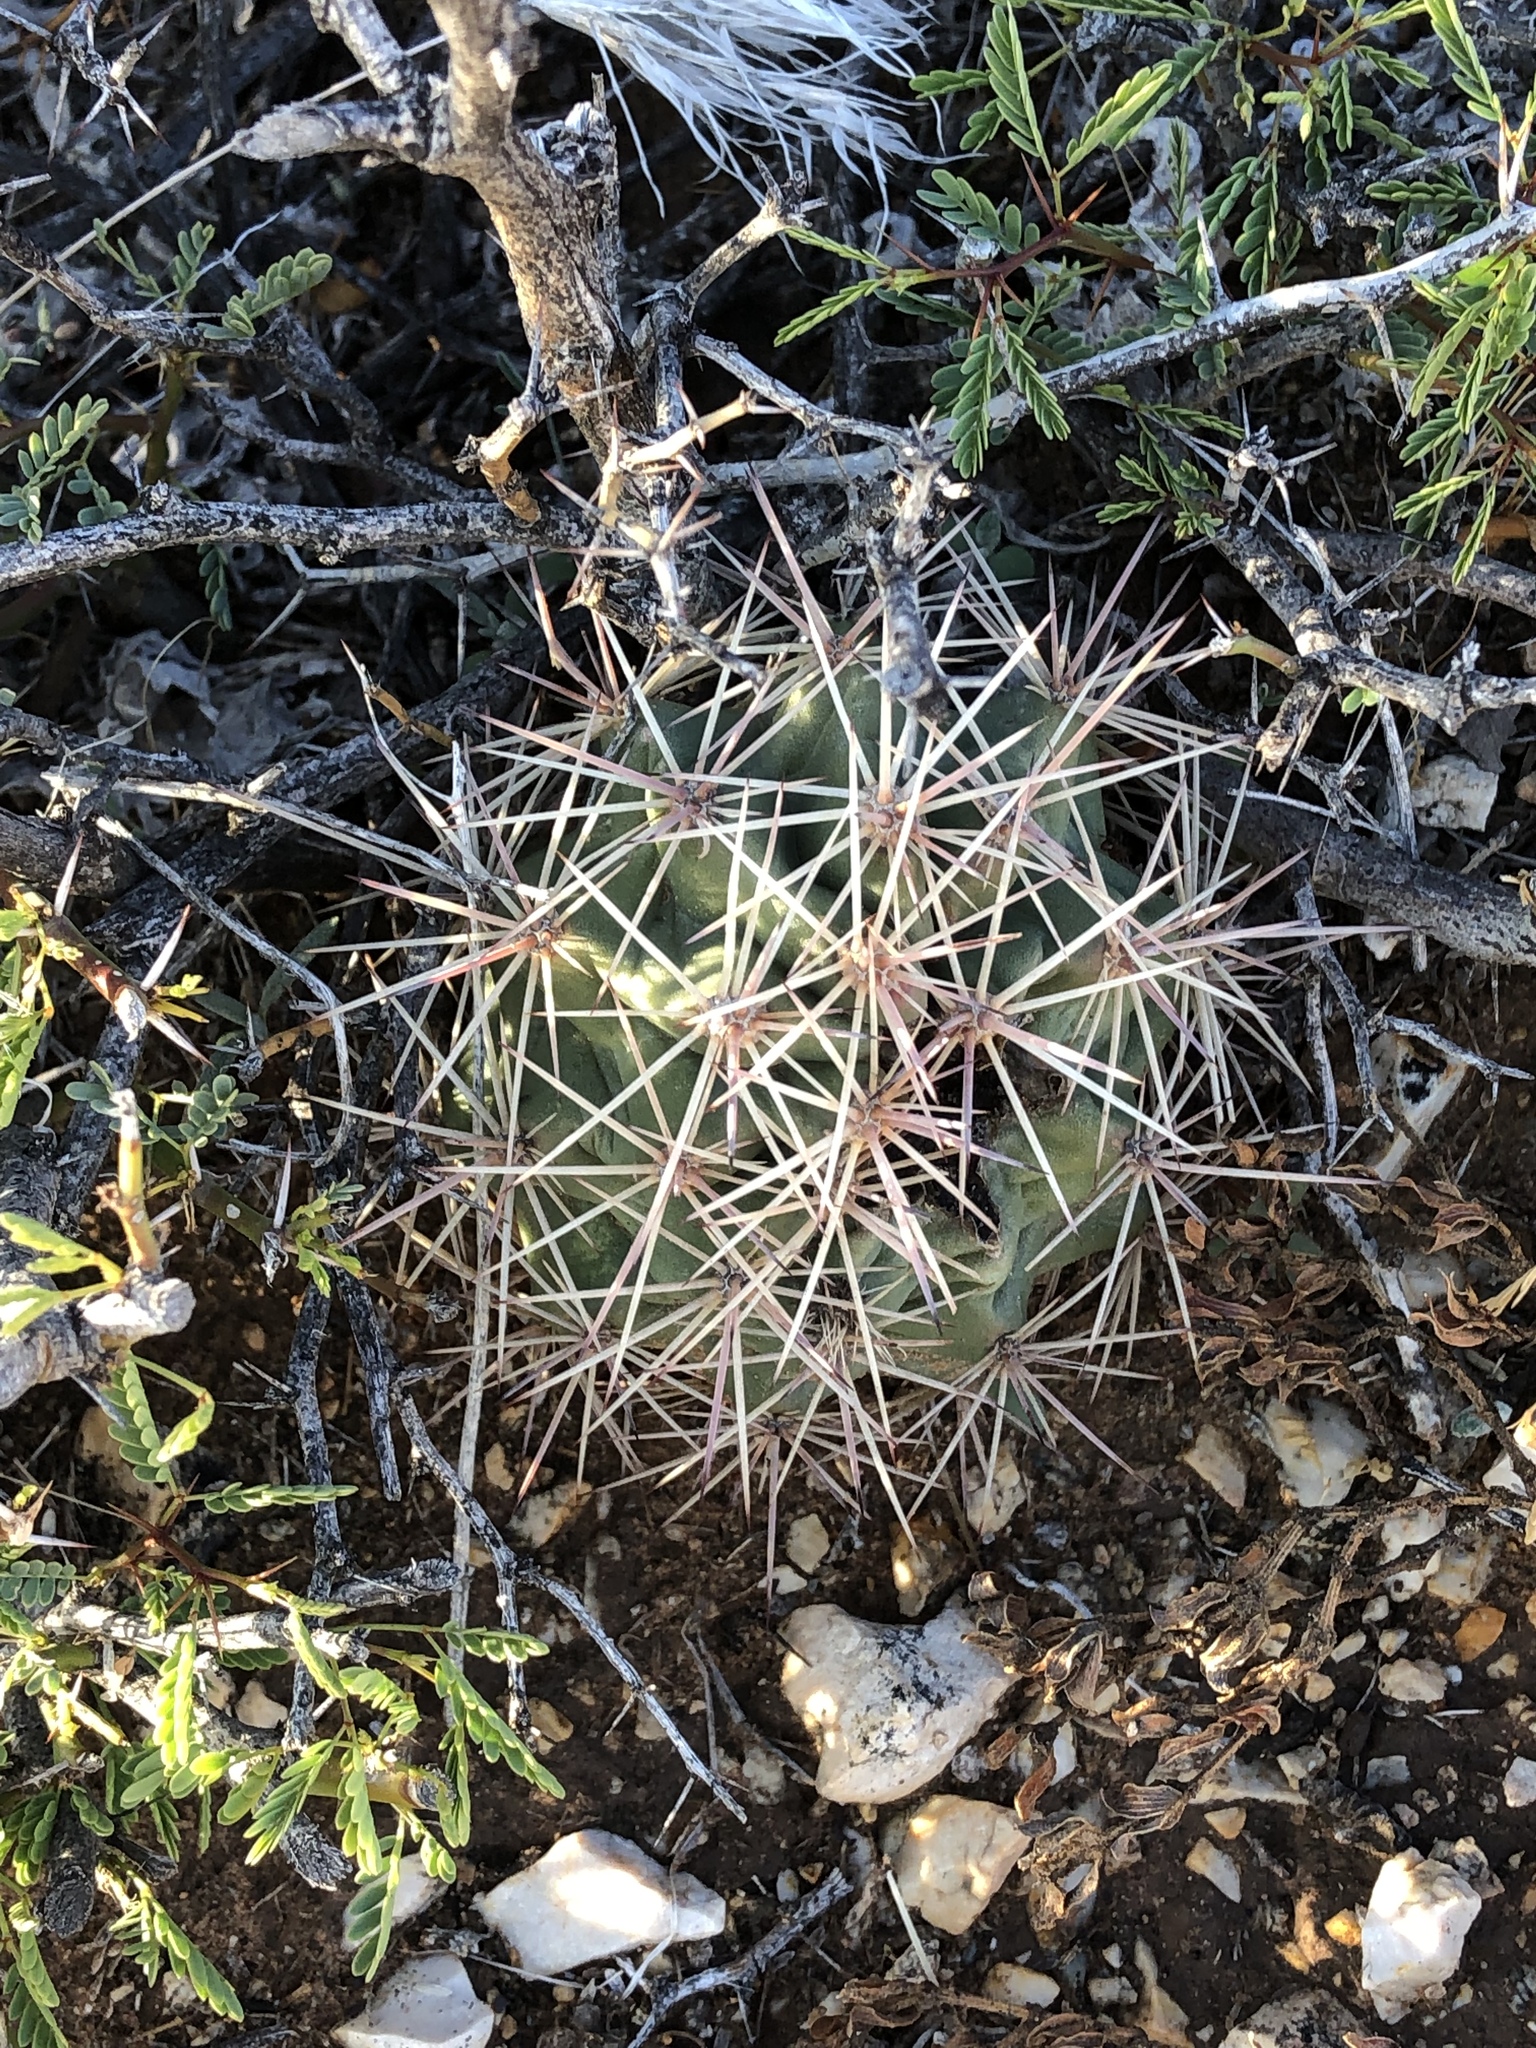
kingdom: Plantae
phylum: Tracheophyta
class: Magnoliopsida
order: Caryophyllales
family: Cactaceae
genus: Echinocereus
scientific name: Echinocereus coccineus
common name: Scarlet hedgehog cactus
